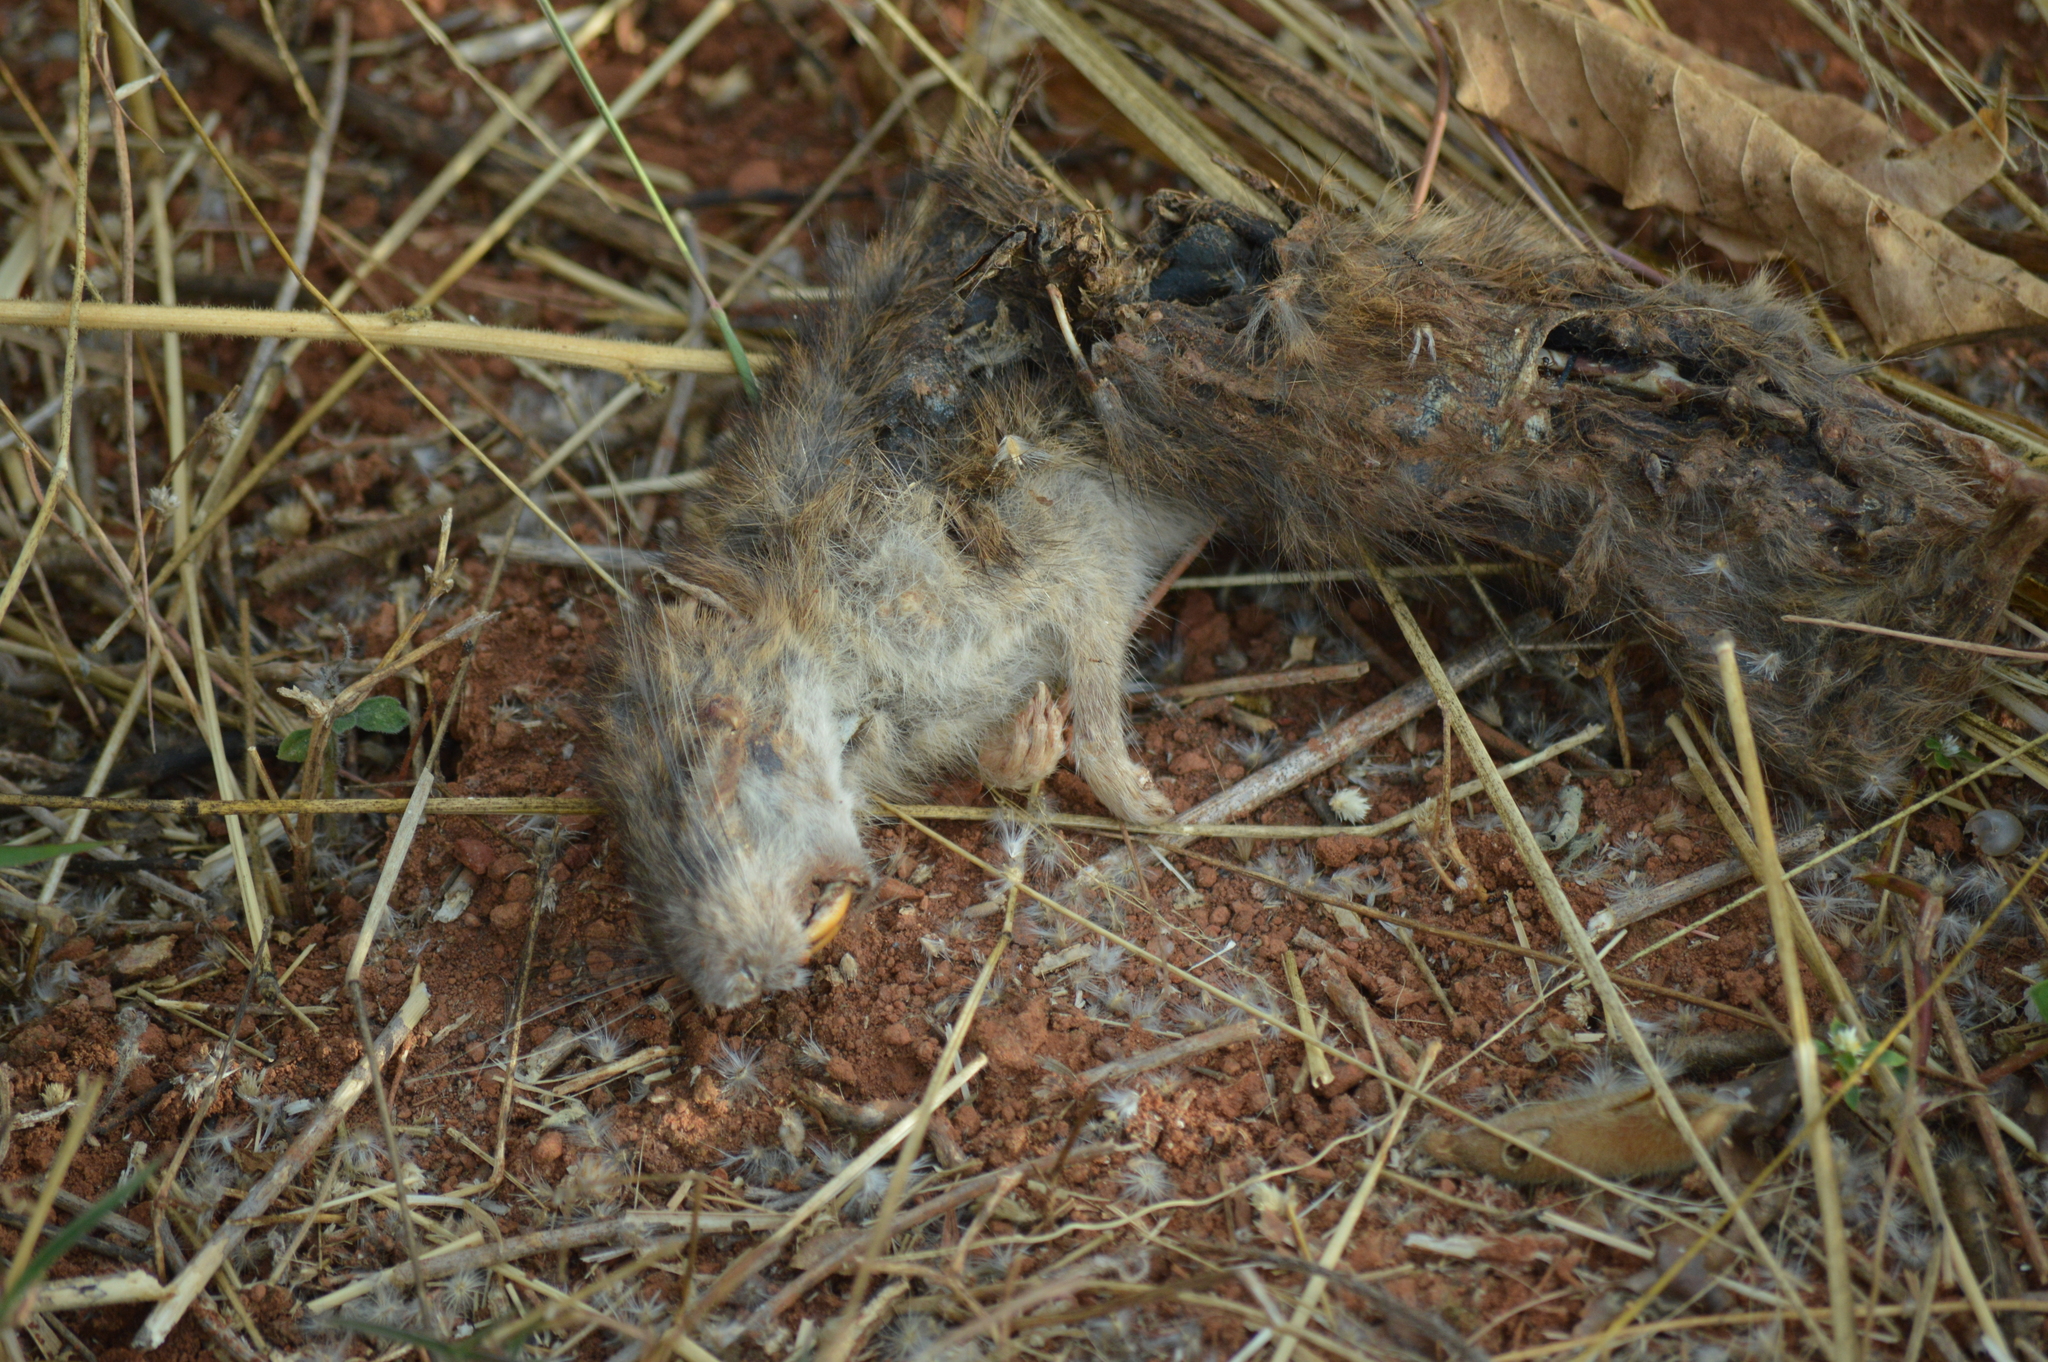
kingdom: Animalia
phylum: Chordata
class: Mammalia
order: Rodentia
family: Muridae
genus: Rattus
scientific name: Rattus norvegicus
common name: Brown rat
